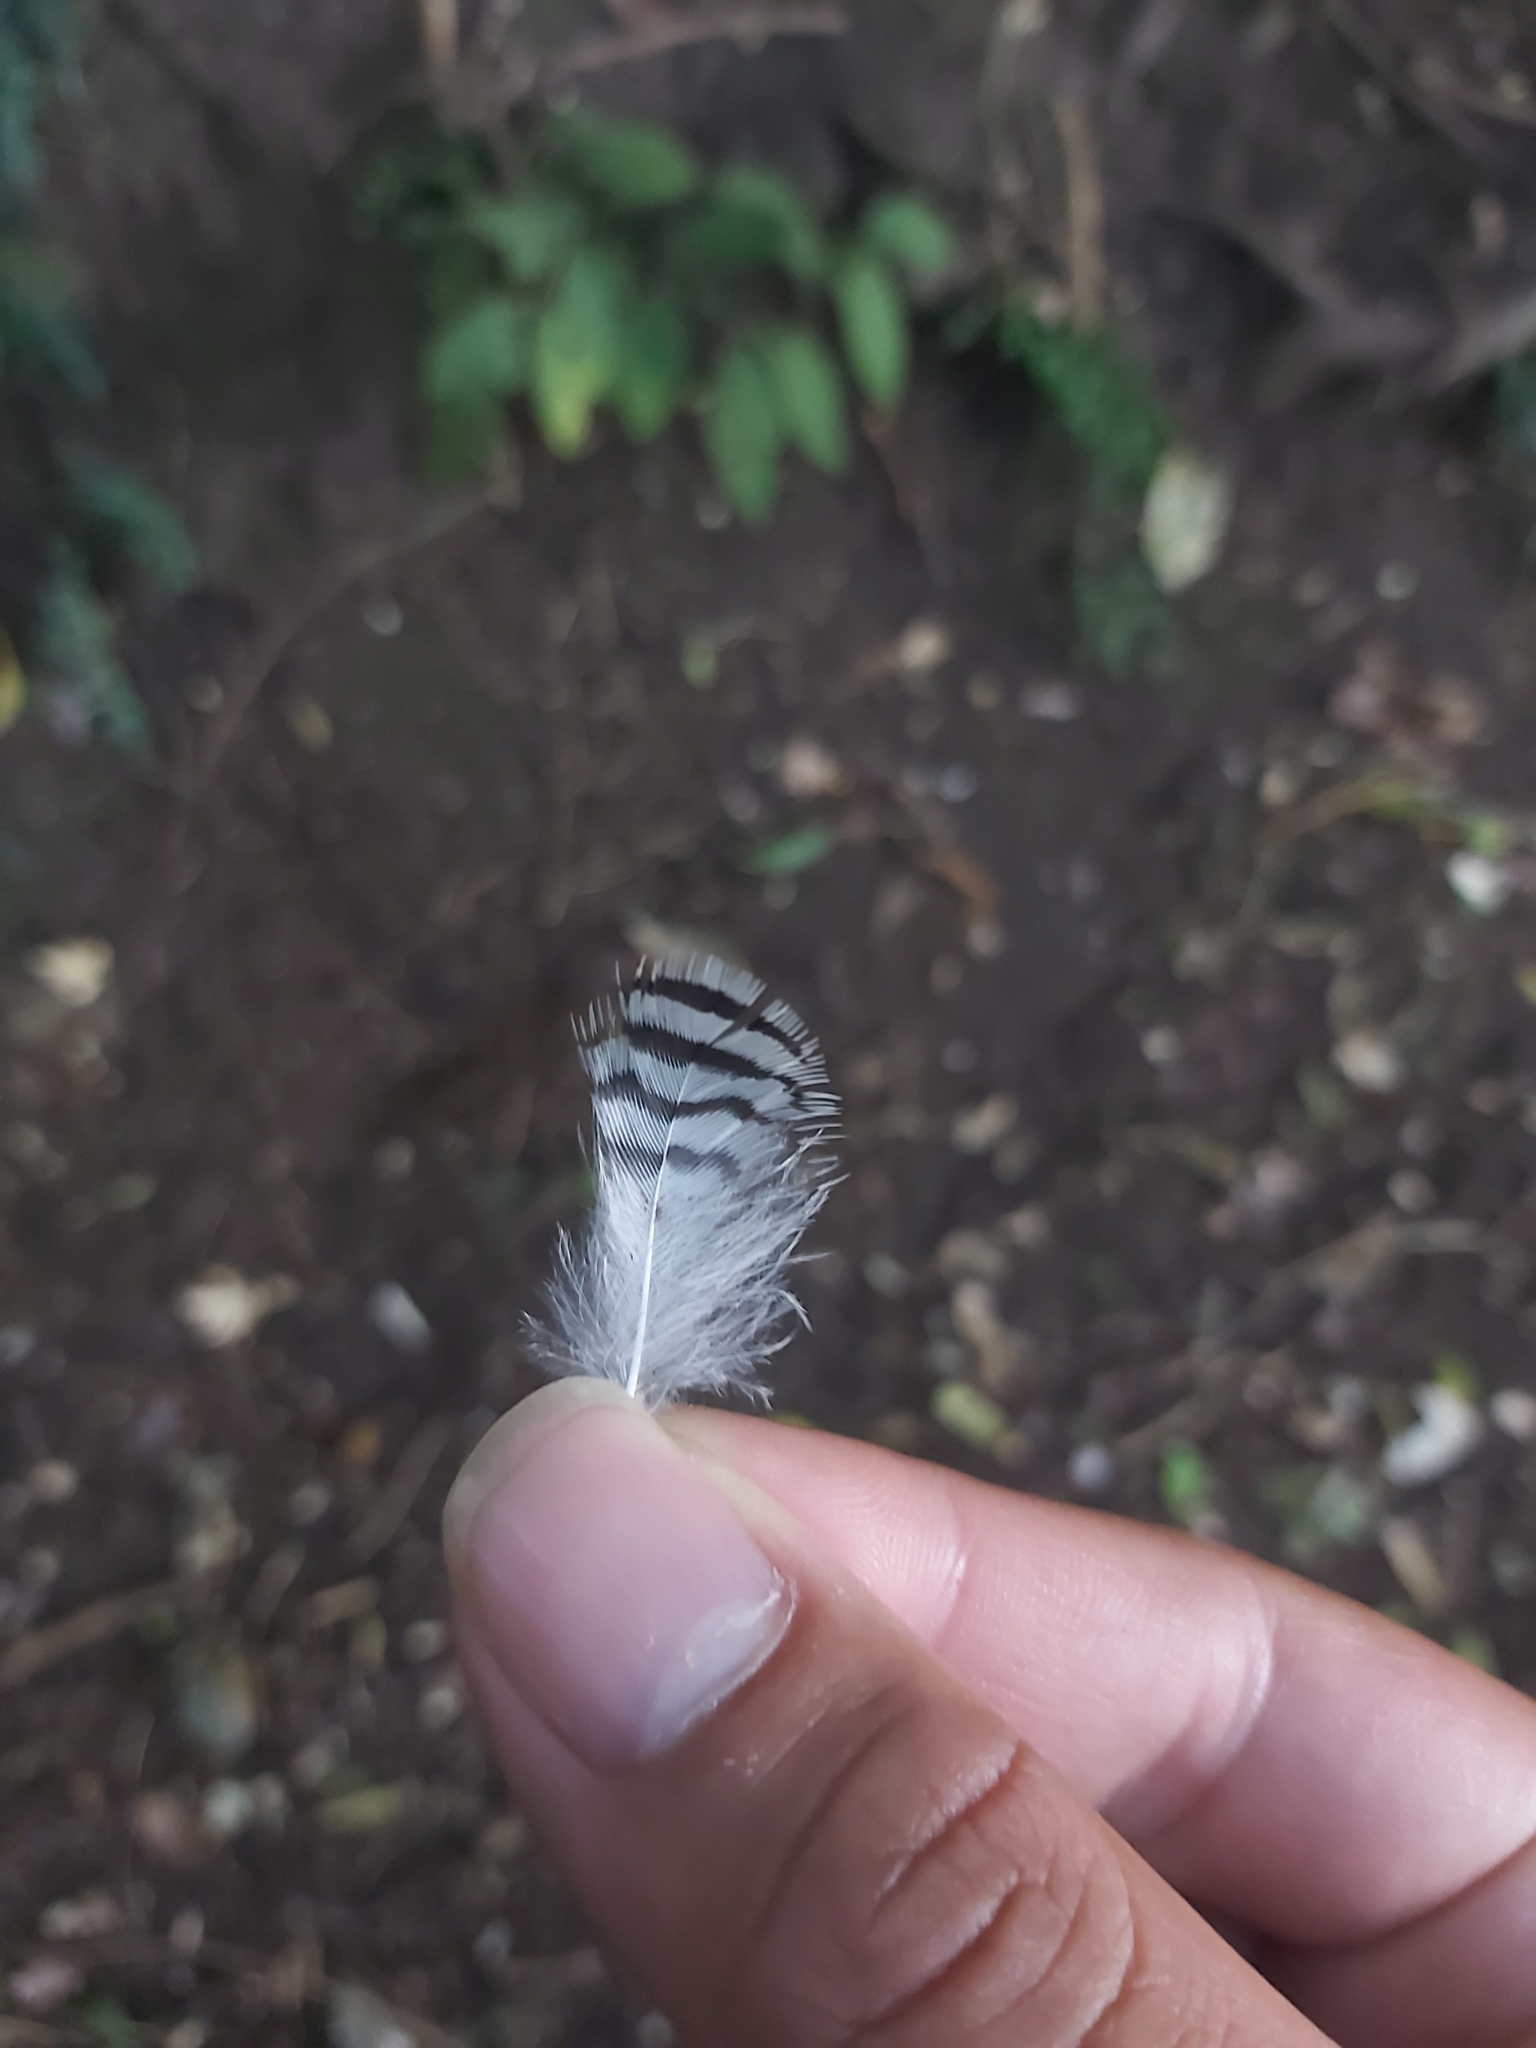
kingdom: Animalia
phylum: Chordata
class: Aves
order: Passeriformes
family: Campephagidae
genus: Coracina
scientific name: Coracina lineata
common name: Barred cuckooshrike
